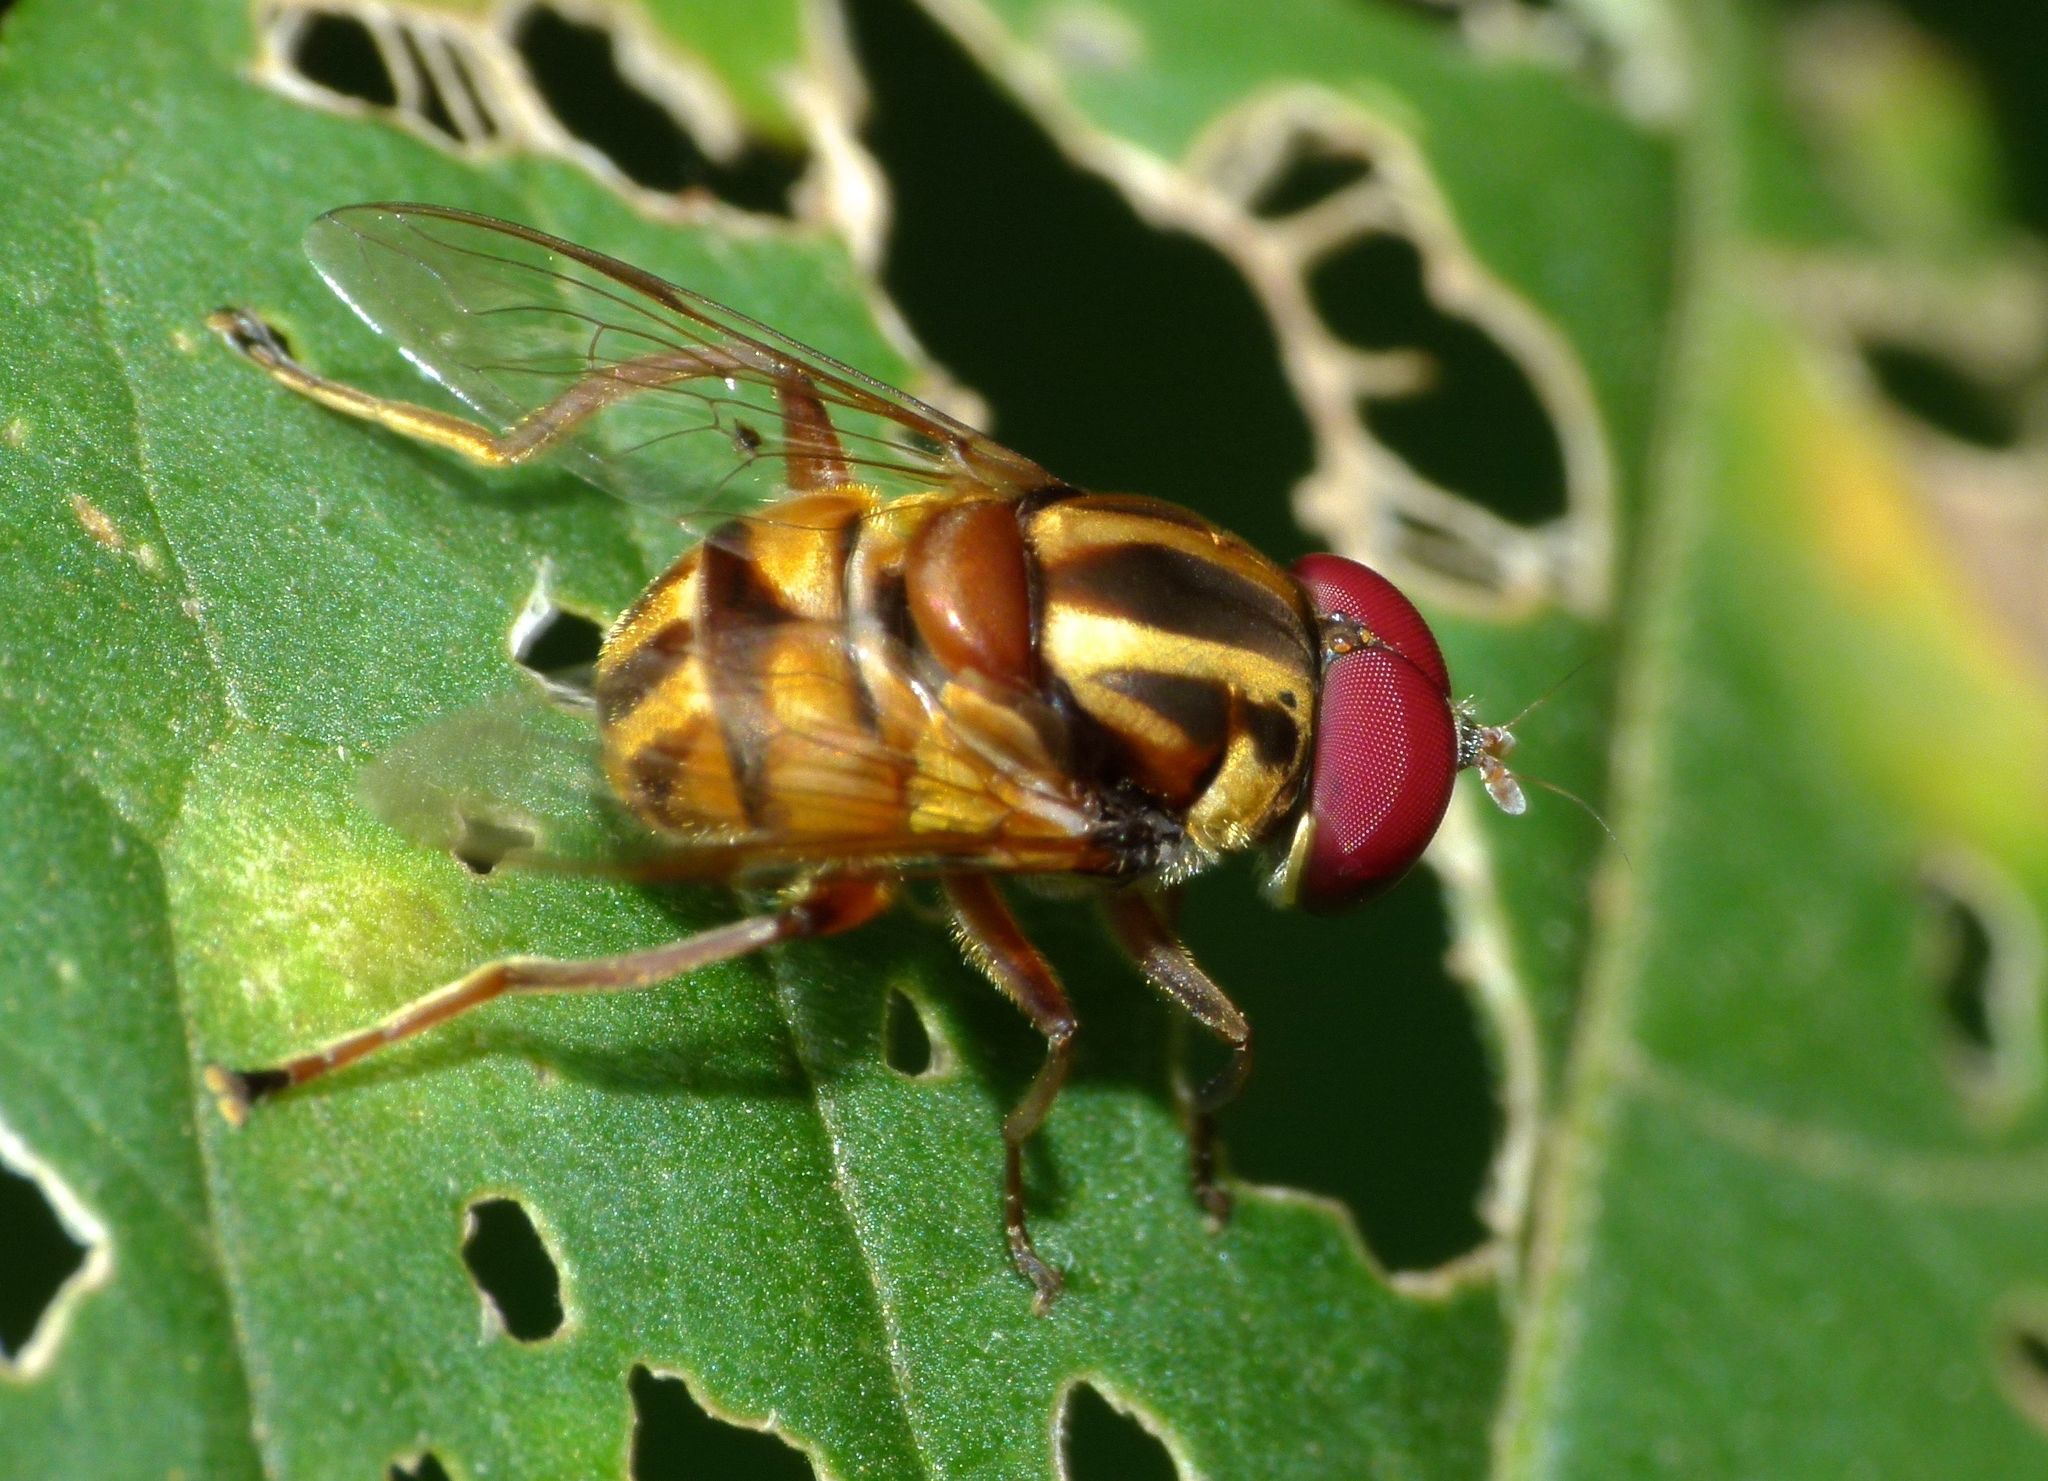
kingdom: Animalia
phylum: Arthropoda
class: Insecta
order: Diptera
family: Syrphidae
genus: Austalis
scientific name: Austalis conjucta
